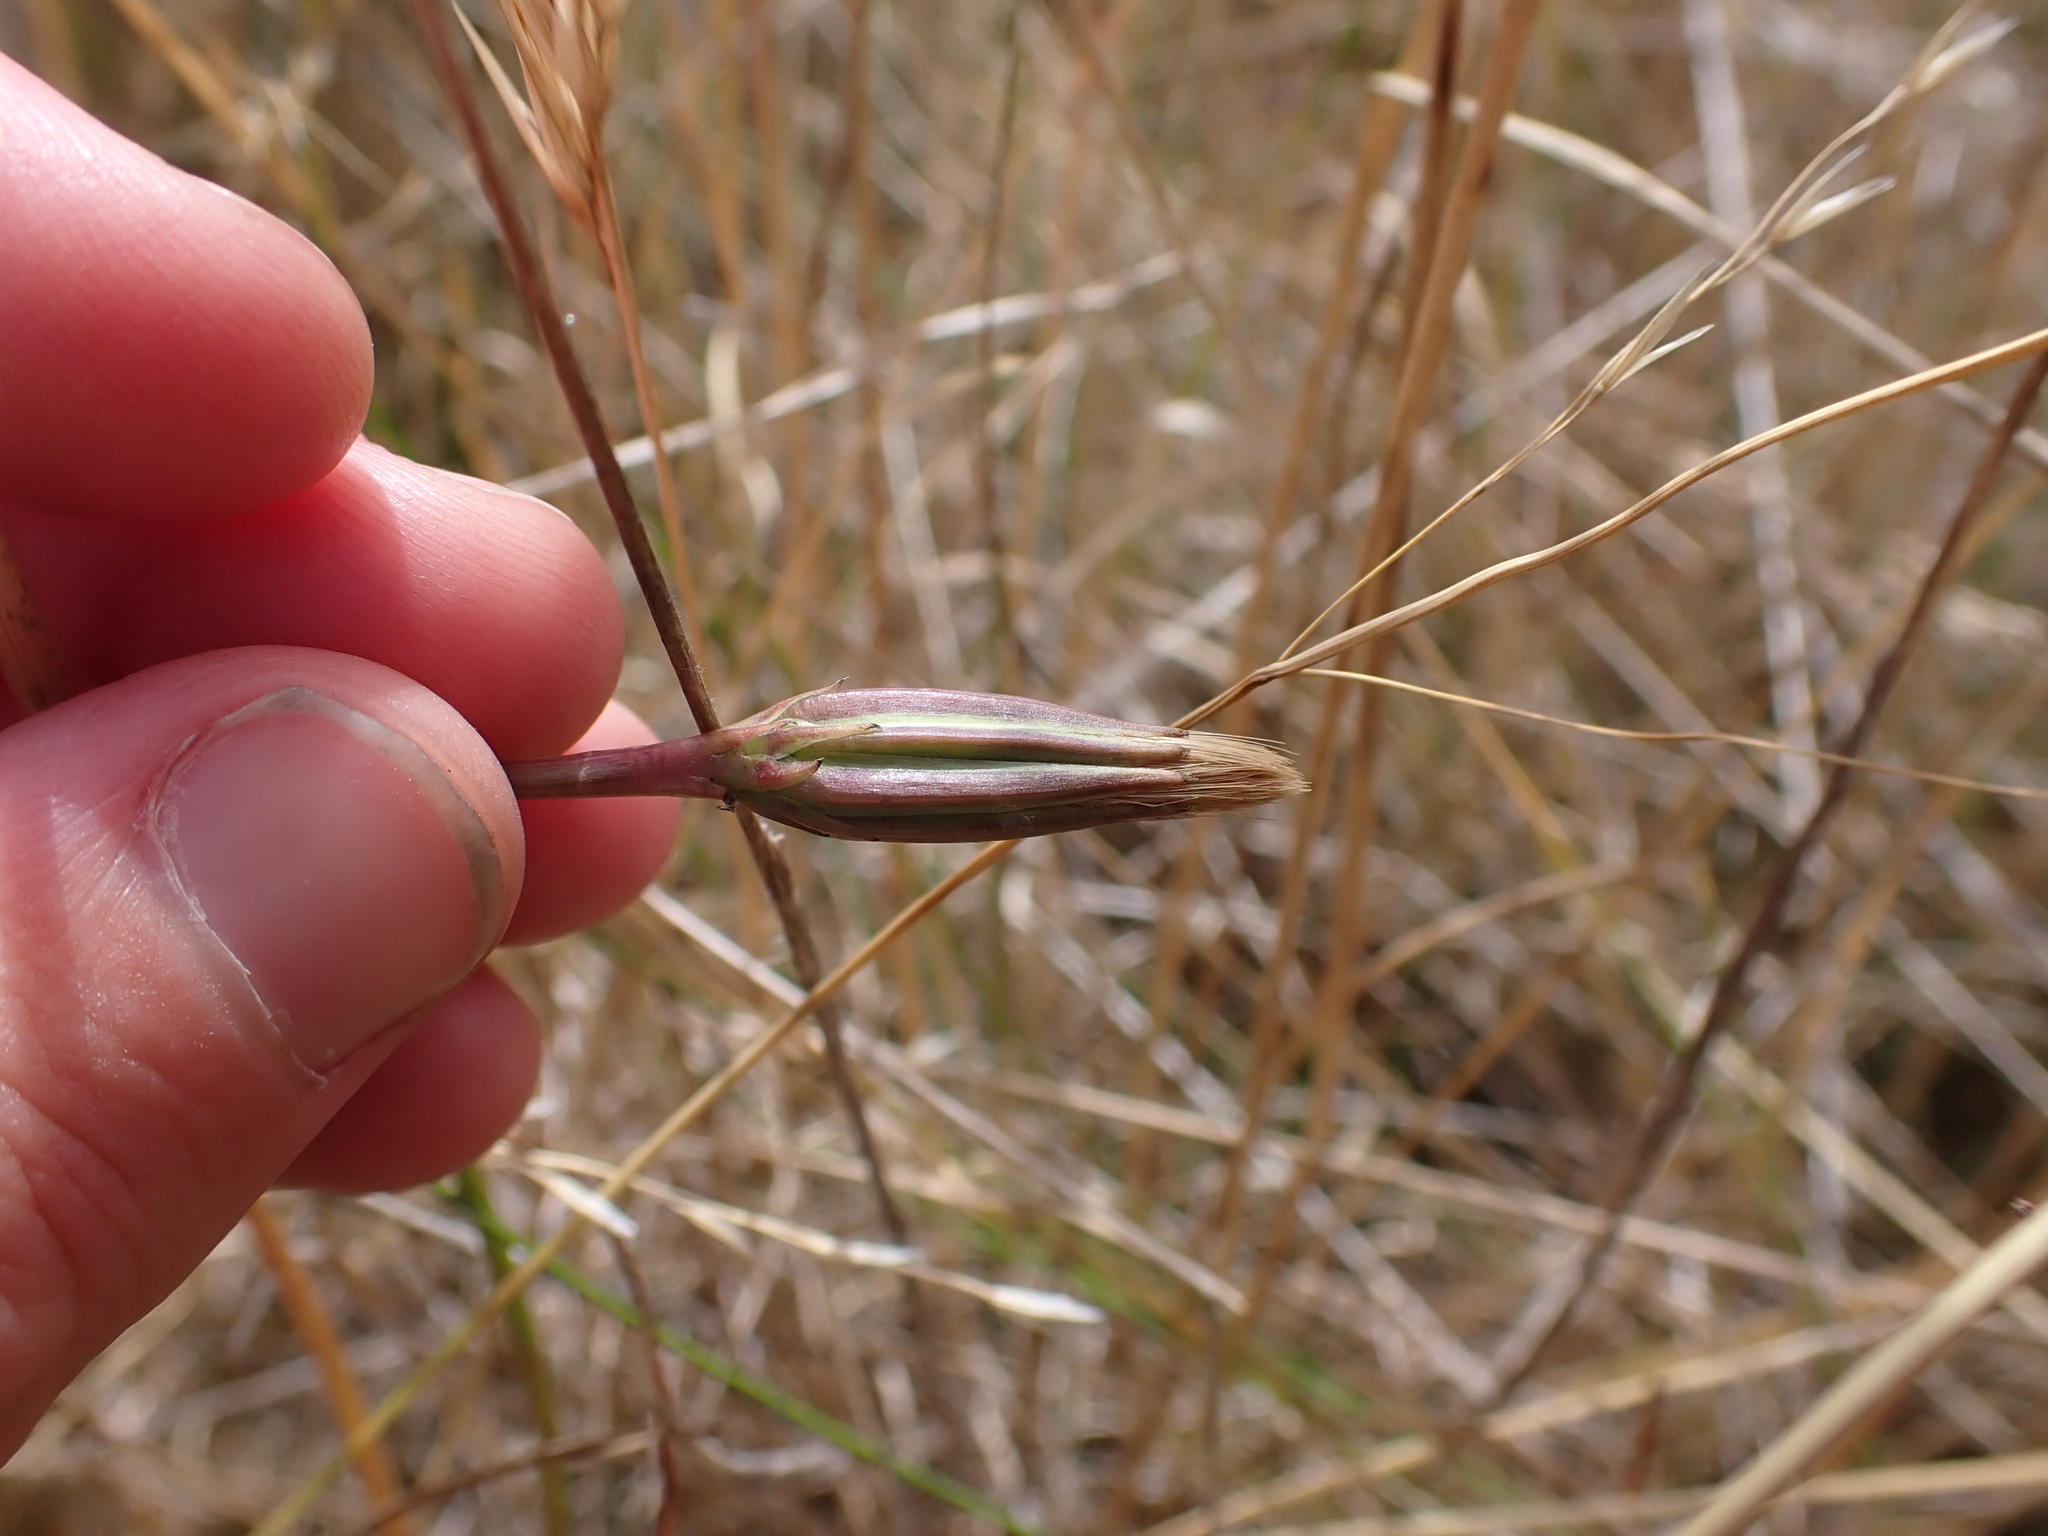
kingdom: Plantae
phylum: Tracheophyta
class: Magnoliopsida
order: Asterales
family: Asteraceae
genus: Microseris
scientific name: Microseris scapigera
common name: Yam daisy
